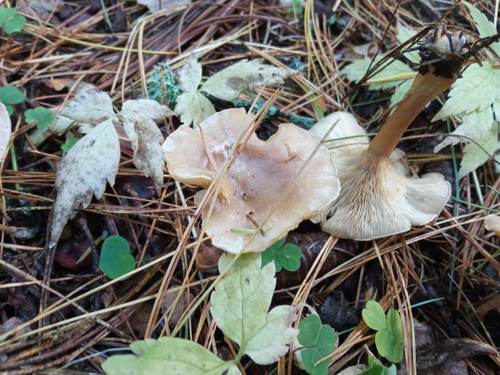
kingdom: Fungi
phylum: Basidiomycota
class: Agaricomycetes
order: Agaricales
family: Tricholomataceae
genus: Clitocybe
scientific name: Clitocybe
